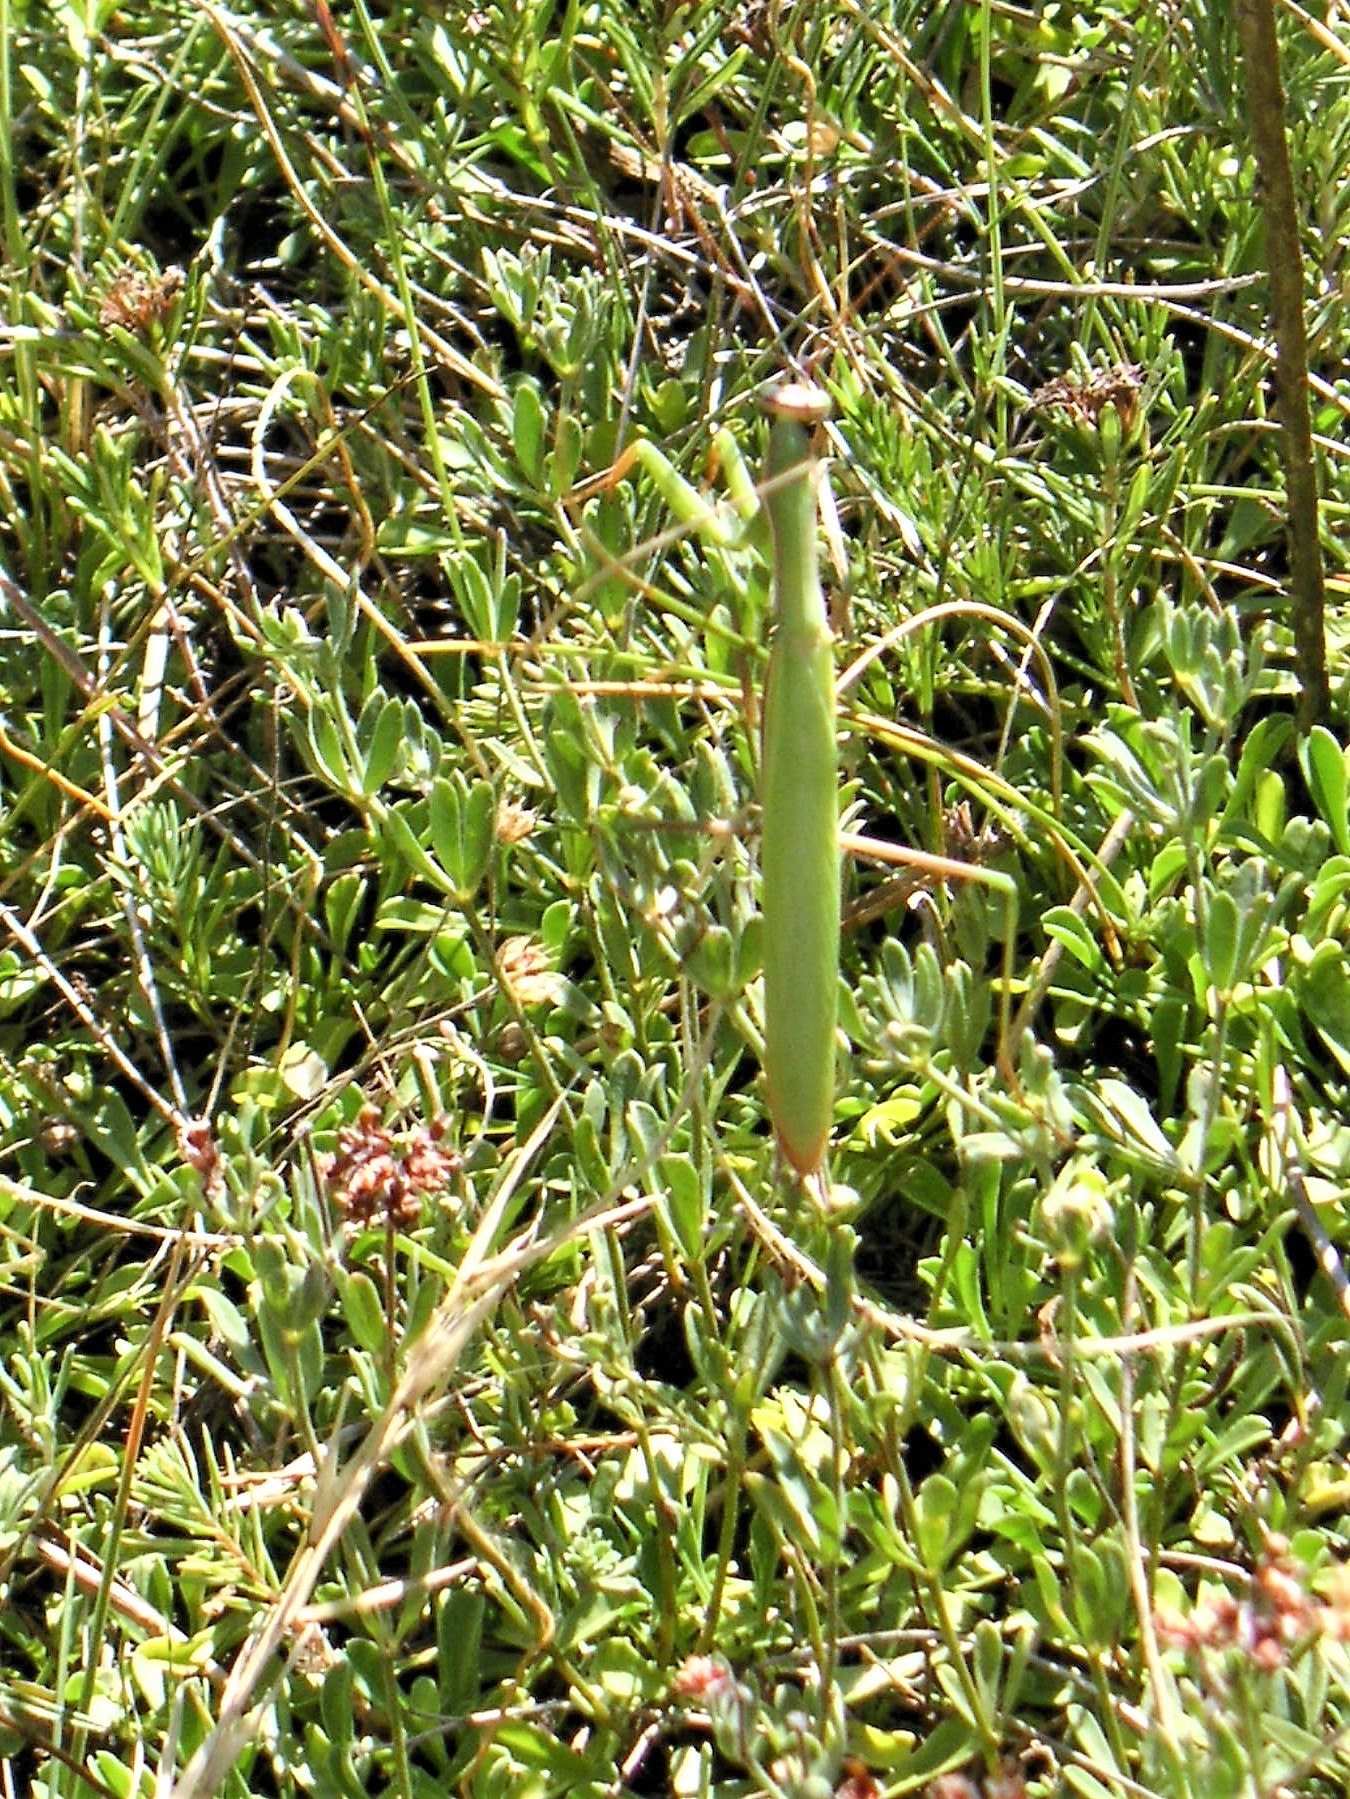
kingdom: Animalia
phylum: Arthropoda
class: Insecta
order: Mantodea
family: Mantidae
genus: Mantis
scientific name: Mantis religiosa
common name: Praying mantis
